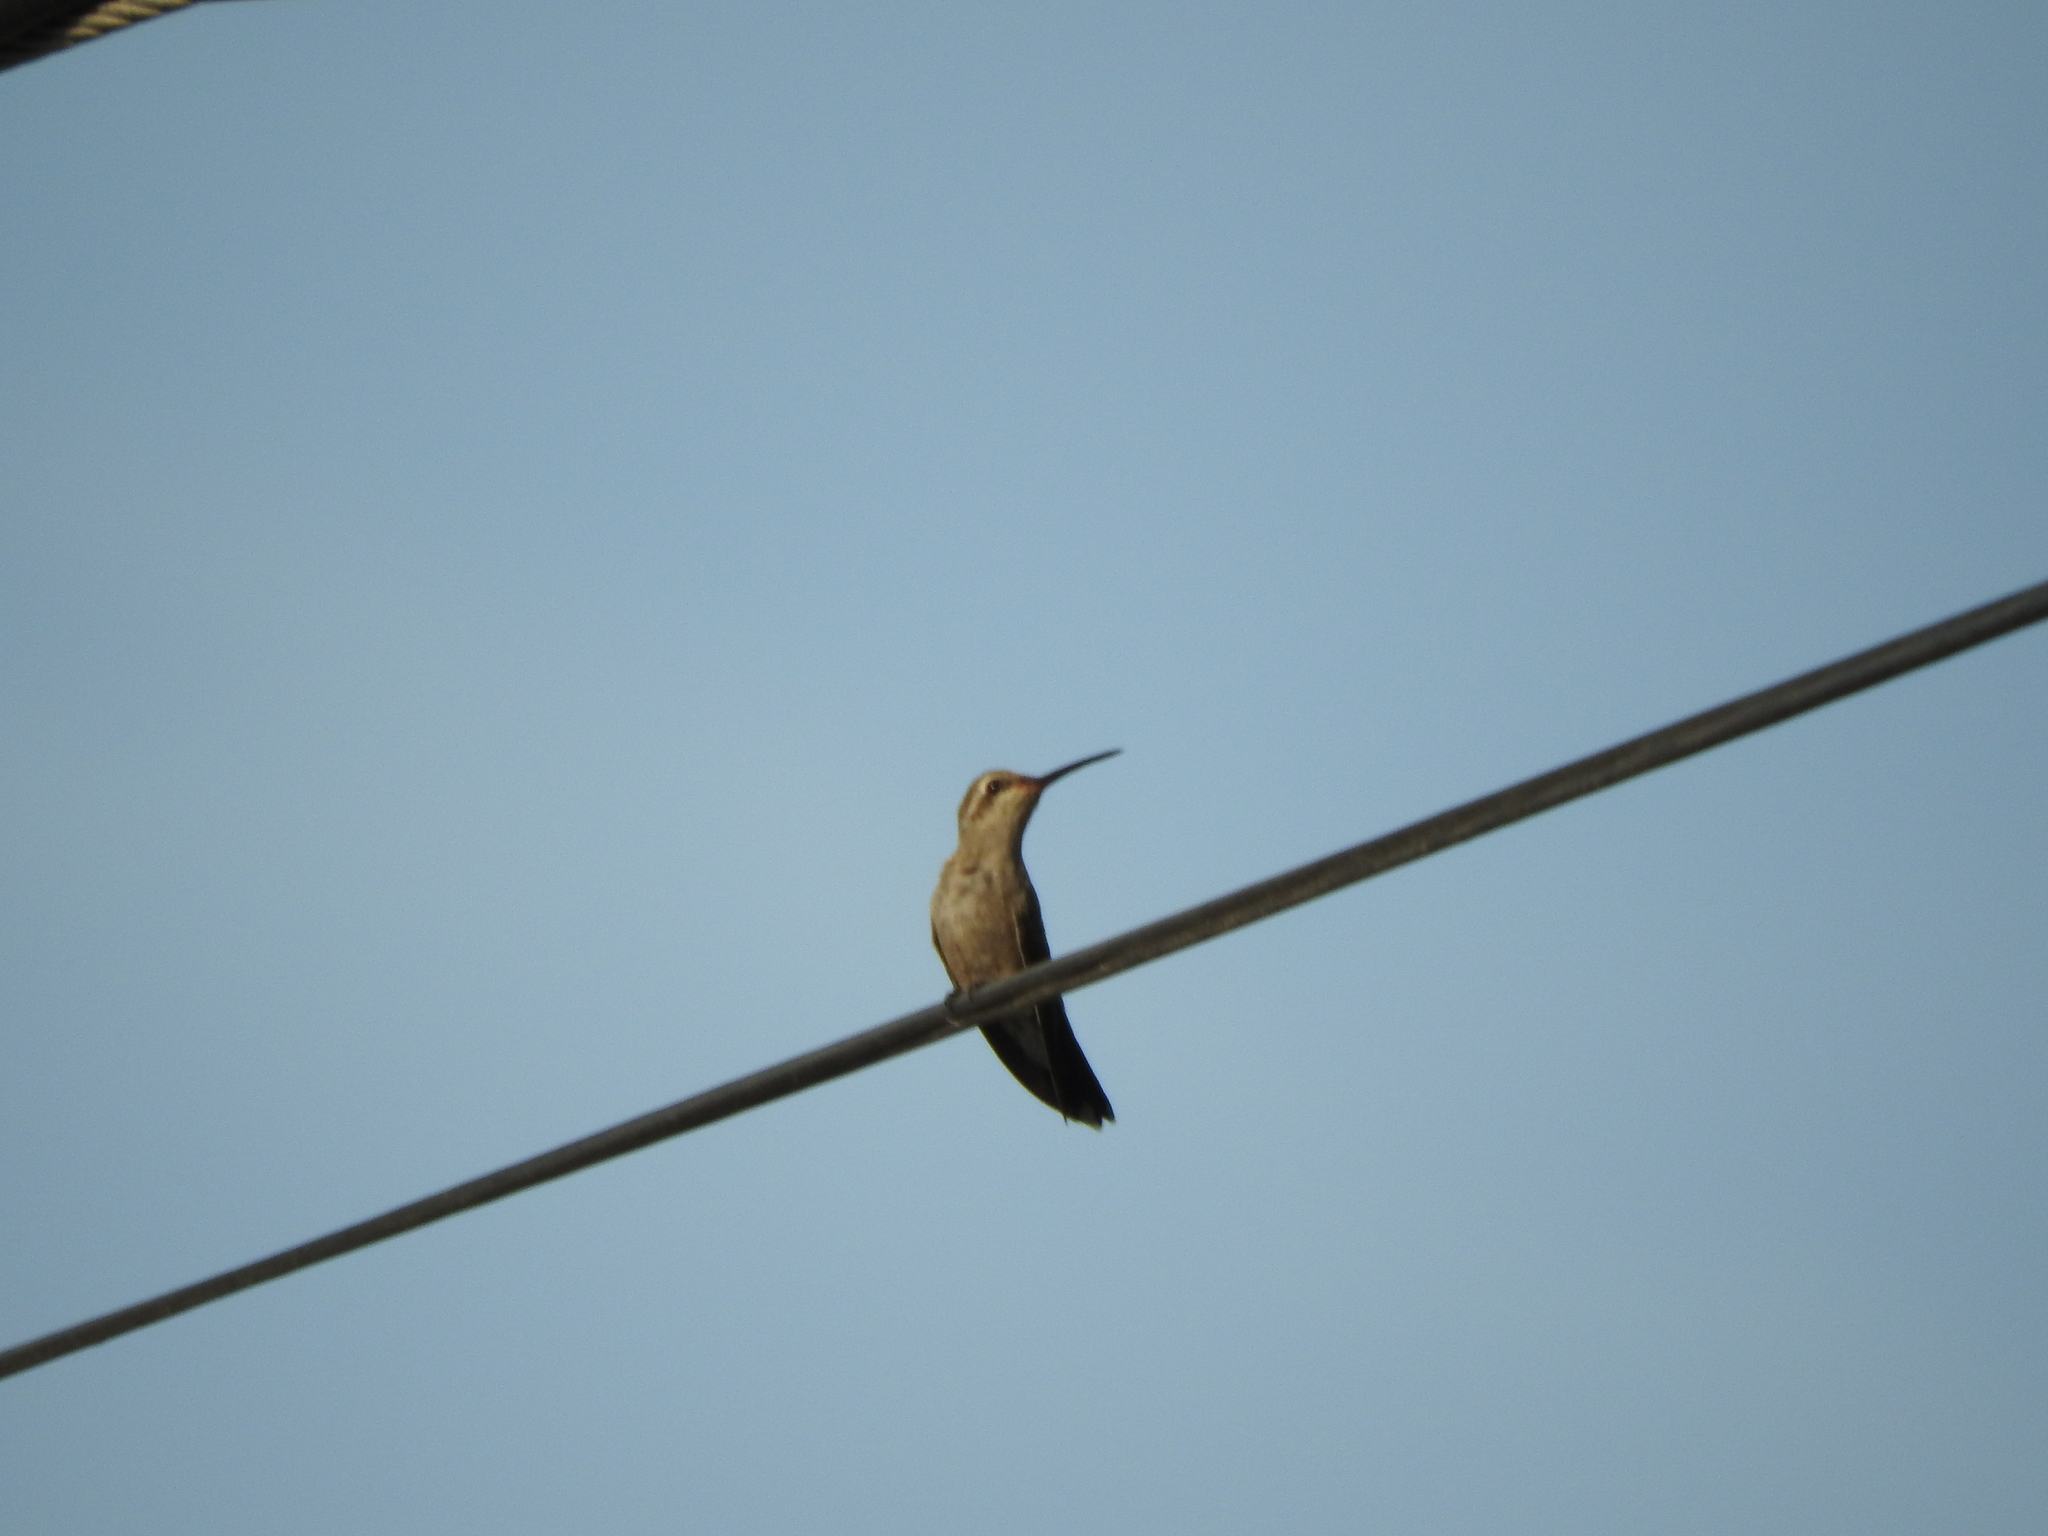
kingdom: Animalia
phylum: Chordata
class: Aves
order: Apodiformes
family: Trochilidae
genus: Cynanthus
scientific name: Cynanthus latirostris
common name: Broad-billed hummingbird
